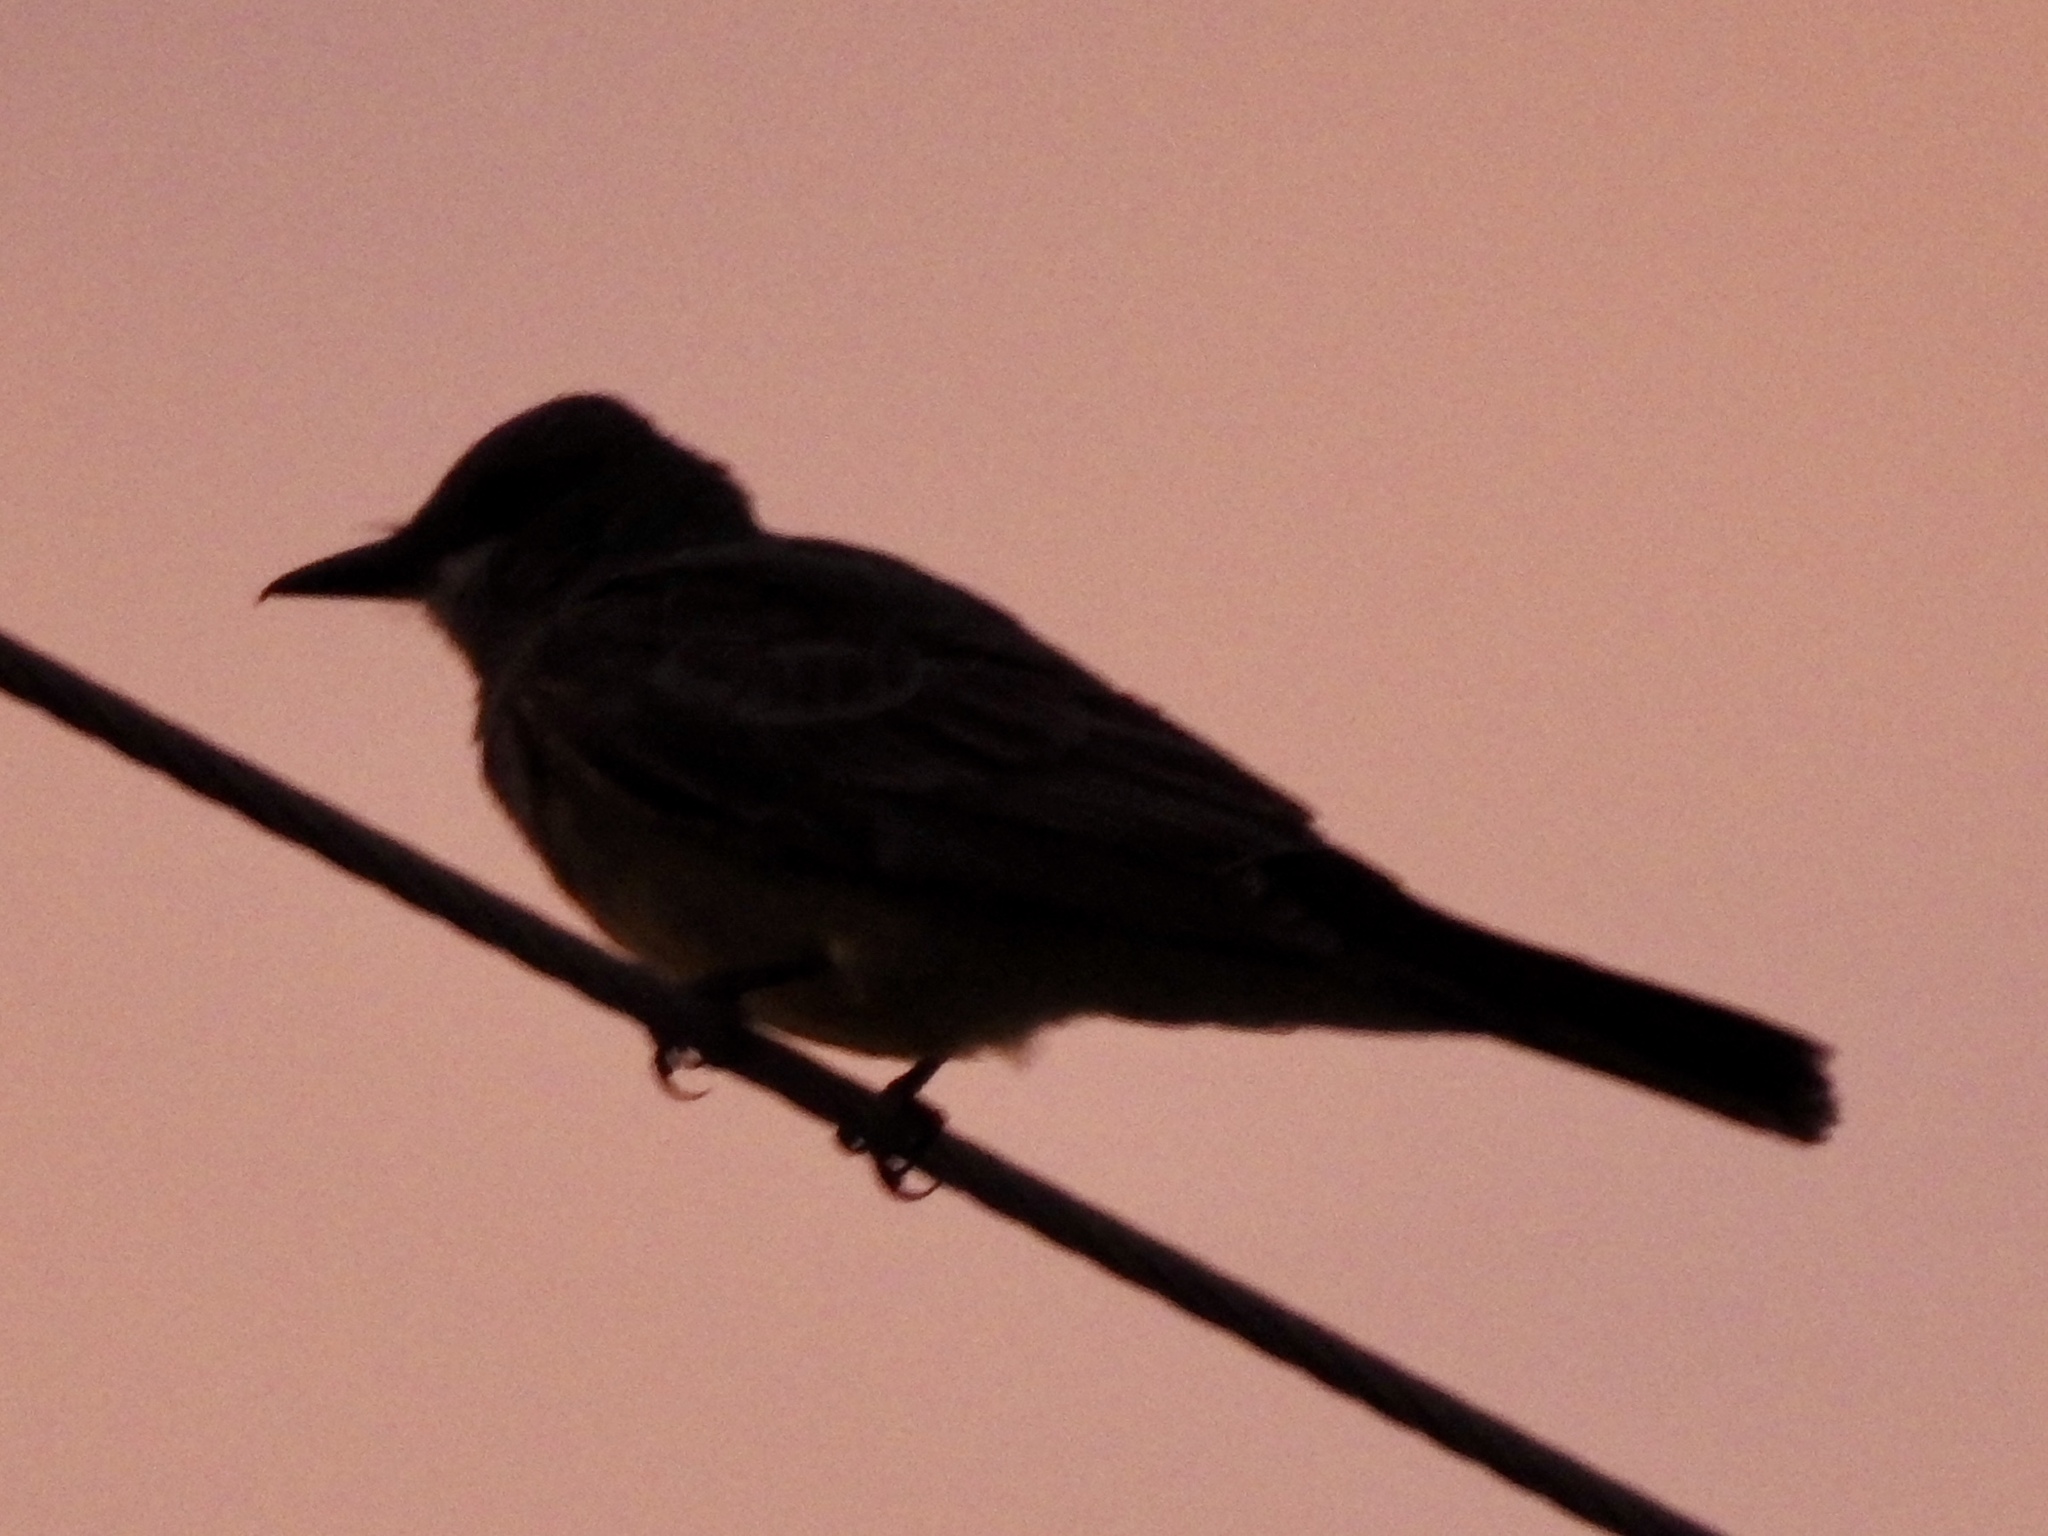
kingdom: Animalia
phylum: Chordata
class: Aves
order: Passeriformes
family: Tyrannidae
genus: Tyrannus
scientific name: Tyrannus vociferans
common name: Cassin's kingbird
